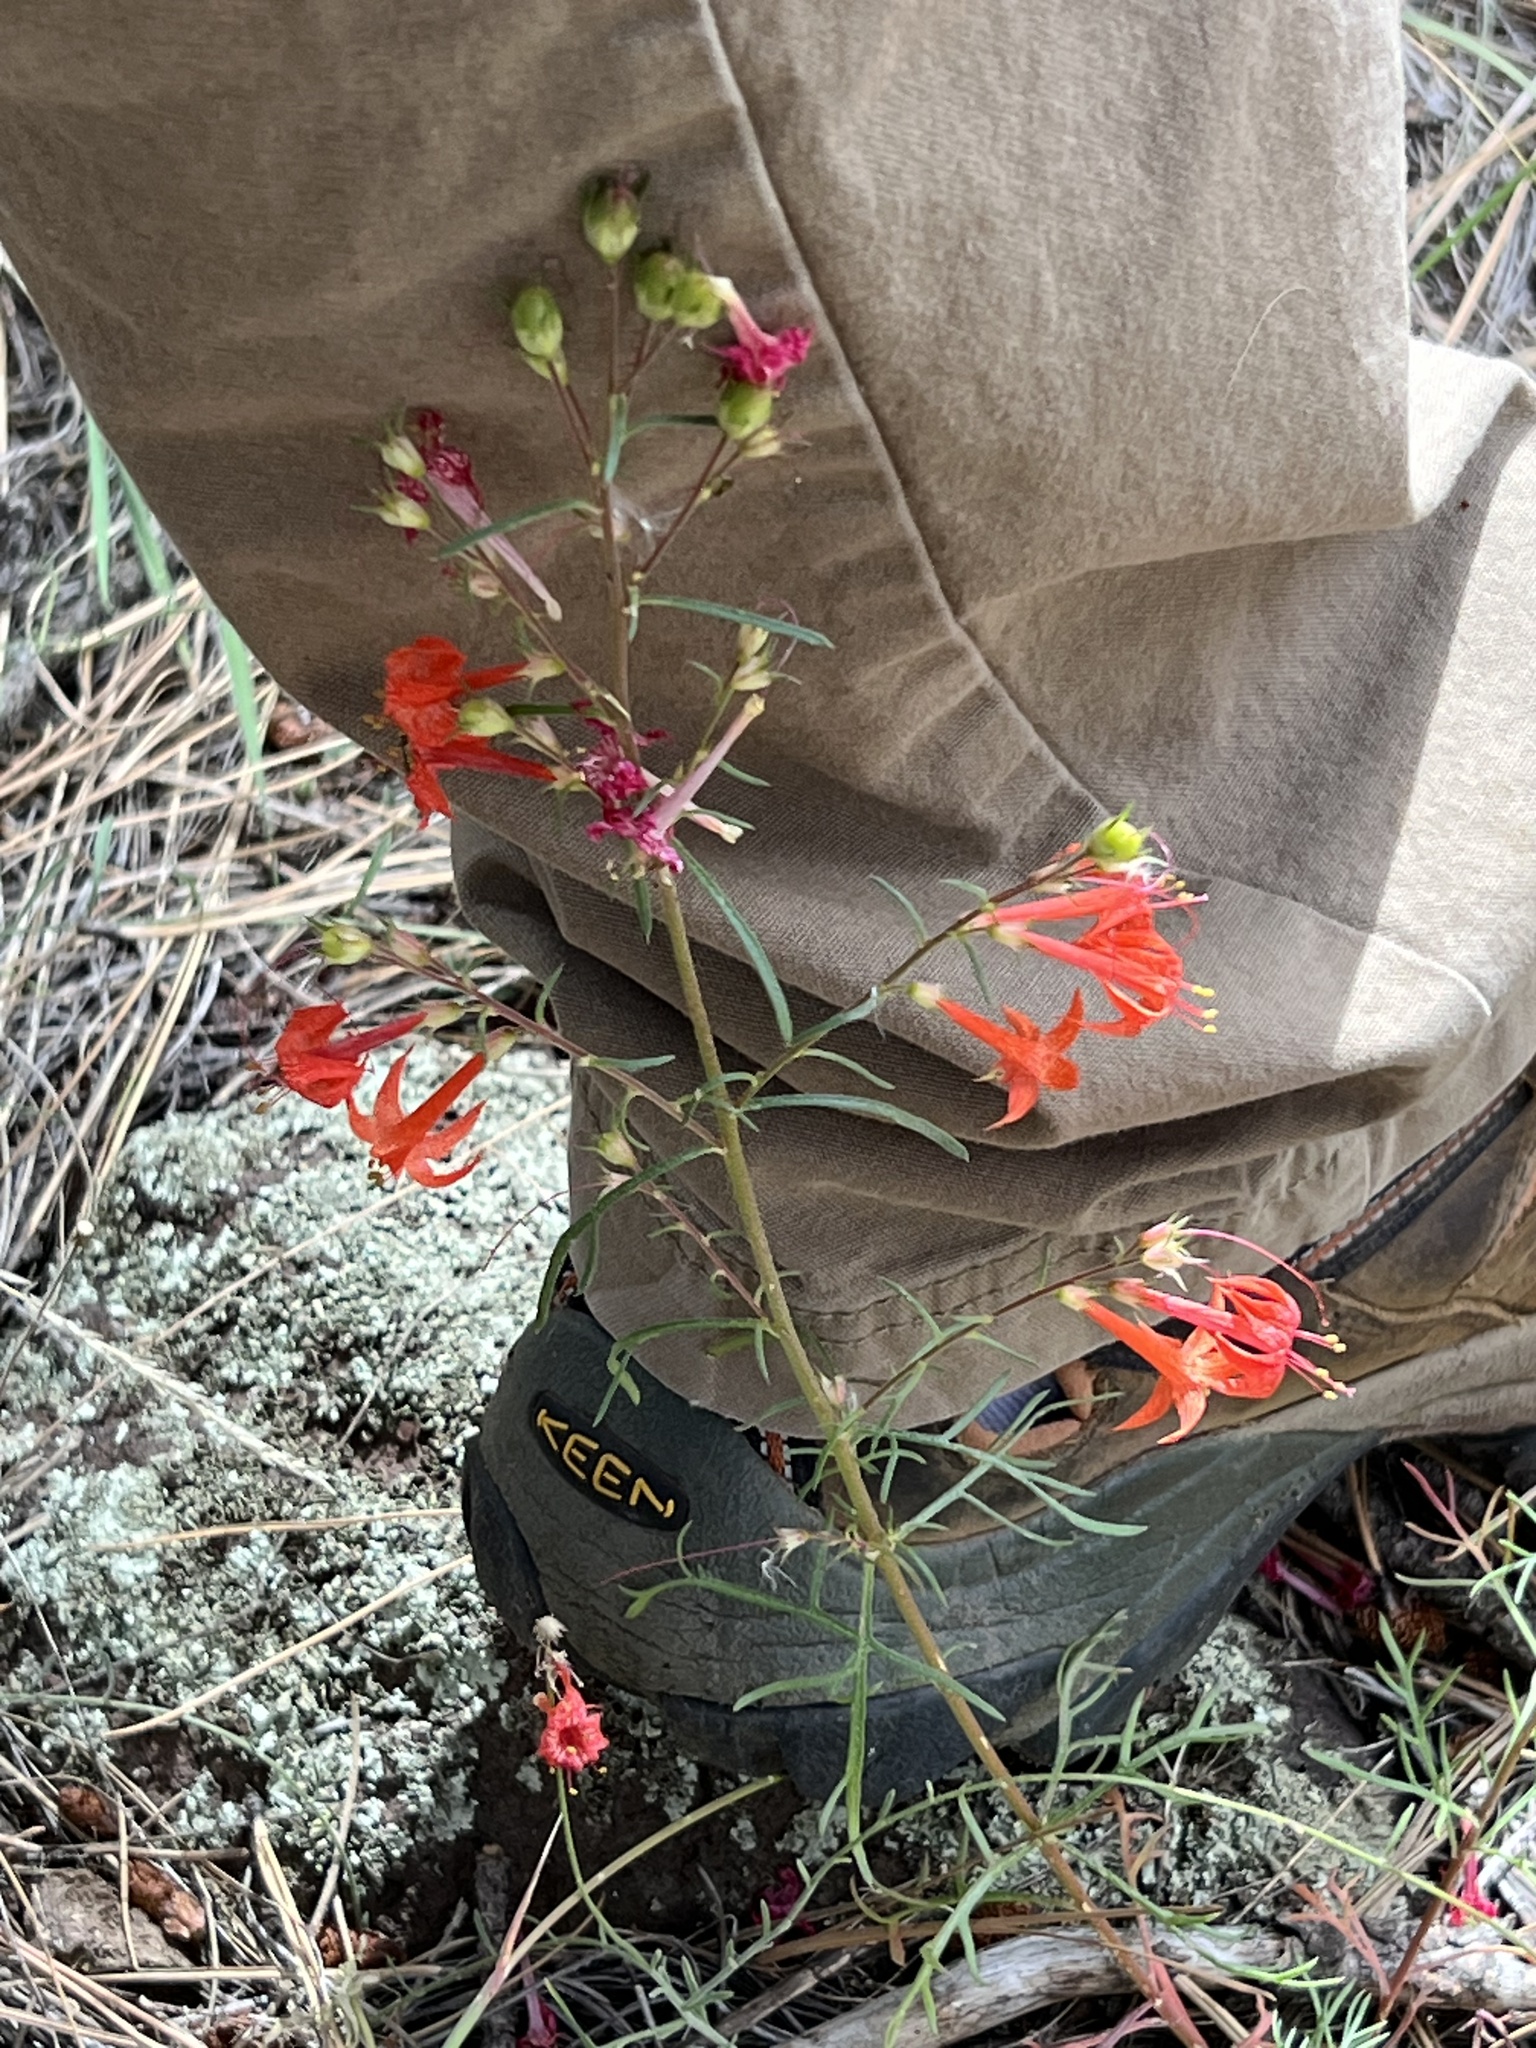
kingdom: Plantae
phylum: Tracheophyta
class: Magnoliopsida
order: Ericales
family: Polemoniaceae
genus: Ipomopsis
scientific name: Ipomopsis aggregata
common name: Scarlet gilia
